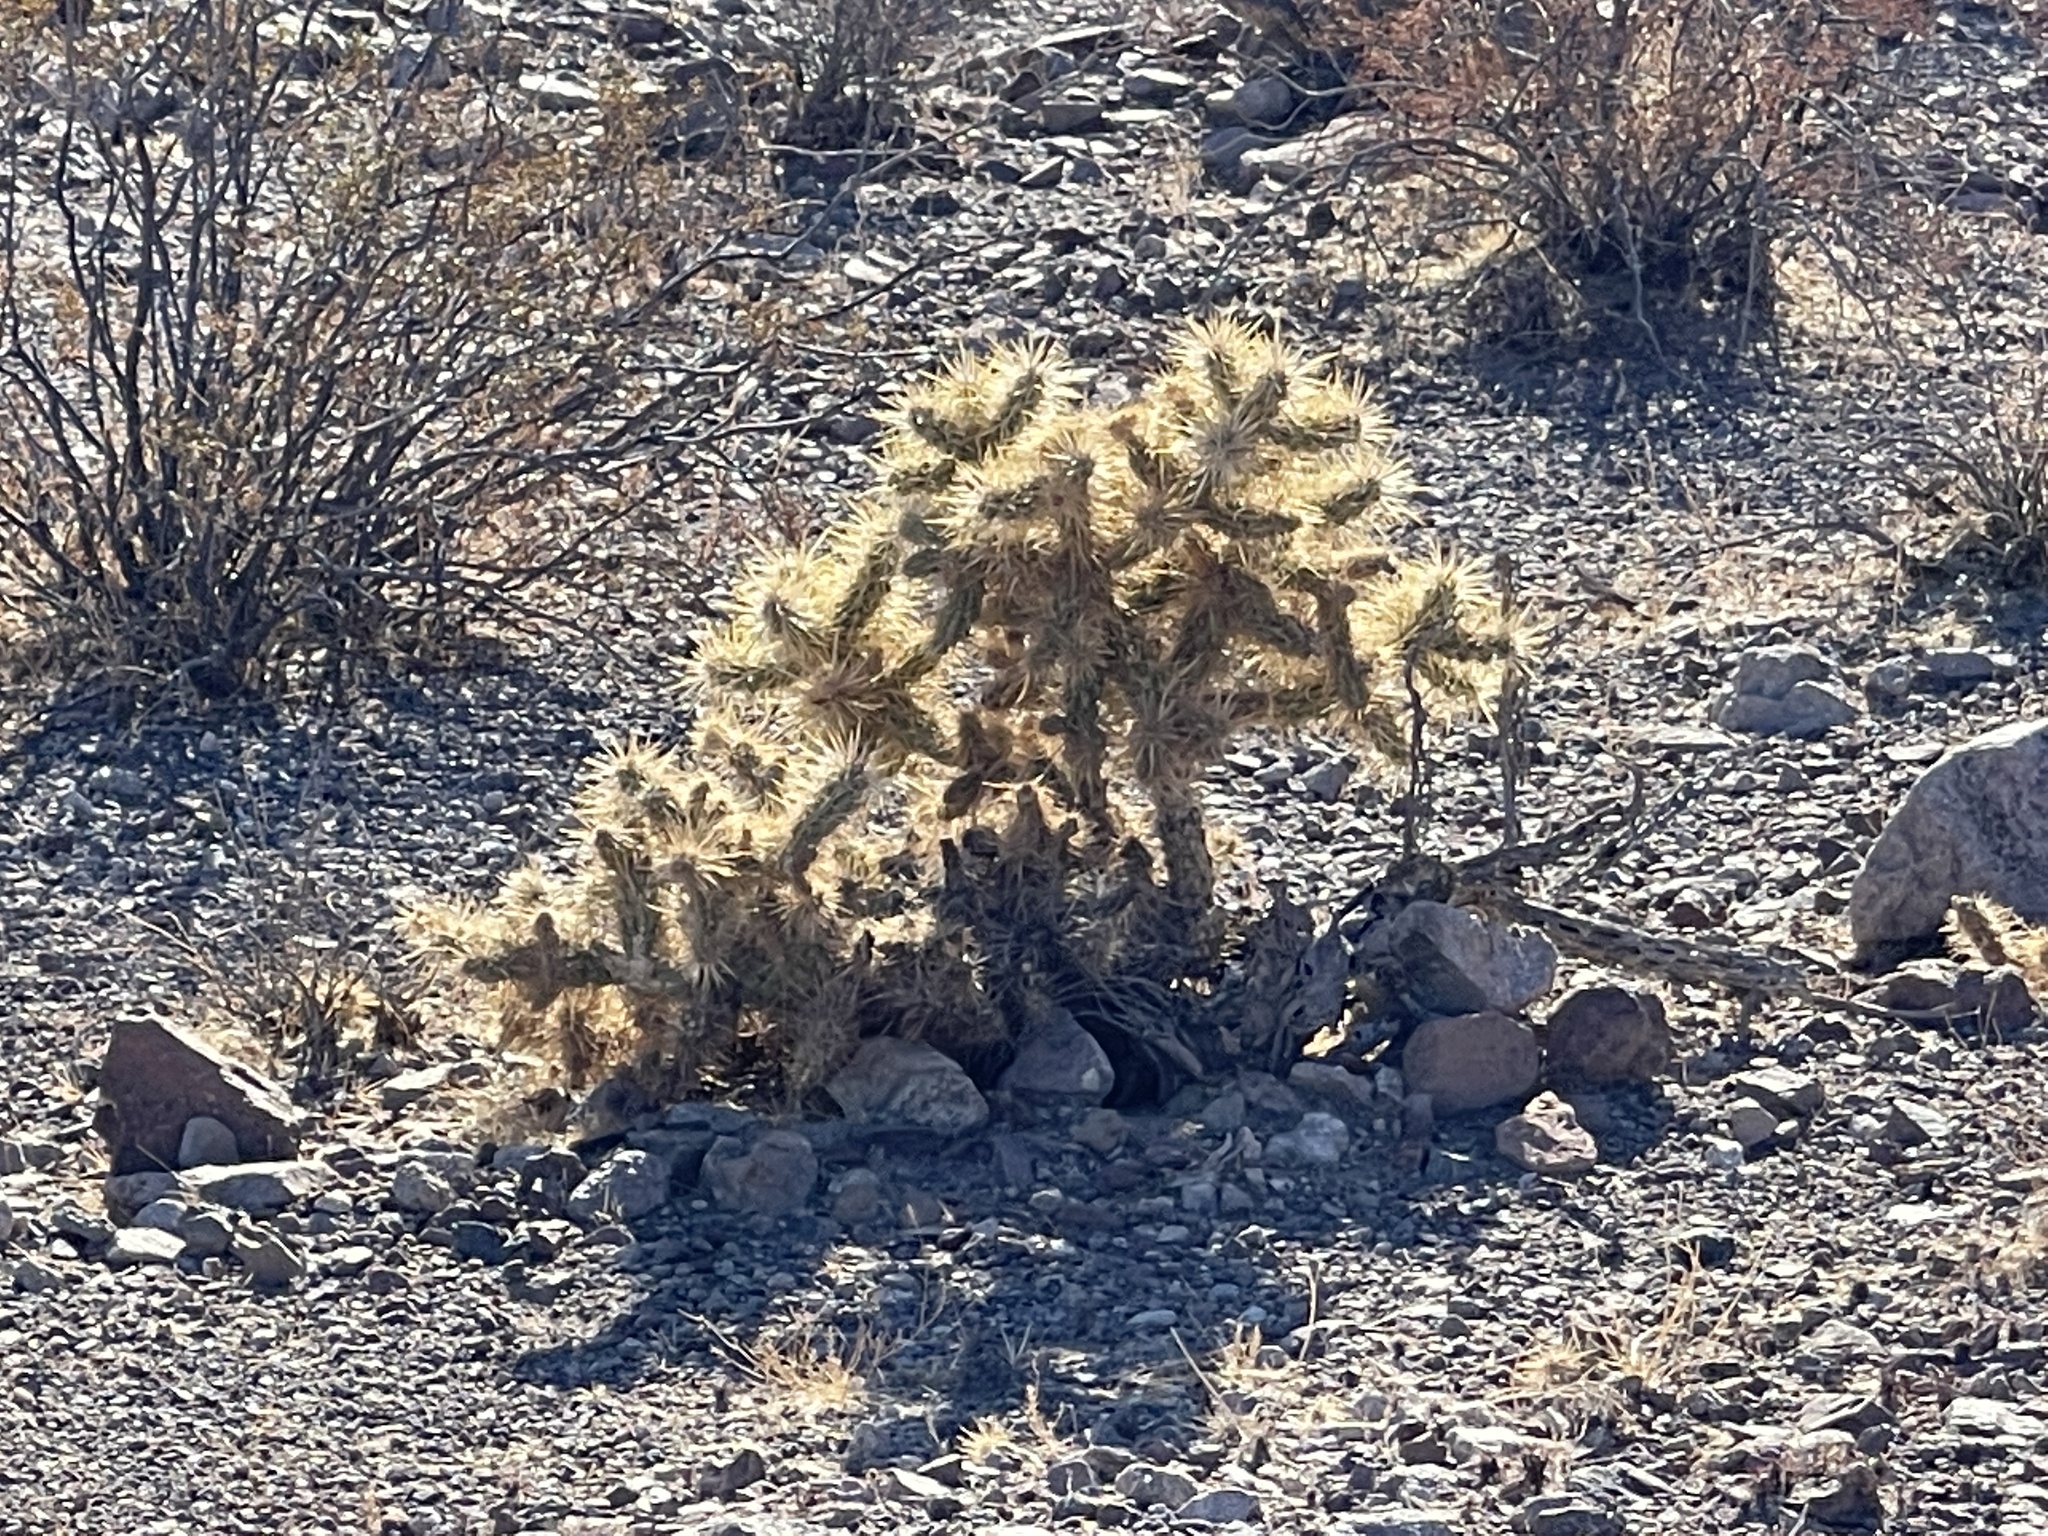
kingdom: Plantae
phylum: Tracheophyta
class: Magnoliopsida
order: Caryophyllales
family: Cactaceae
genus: Cylindropuntia
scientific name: Cylindropuntia echinocarpa
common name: Ground cholla
